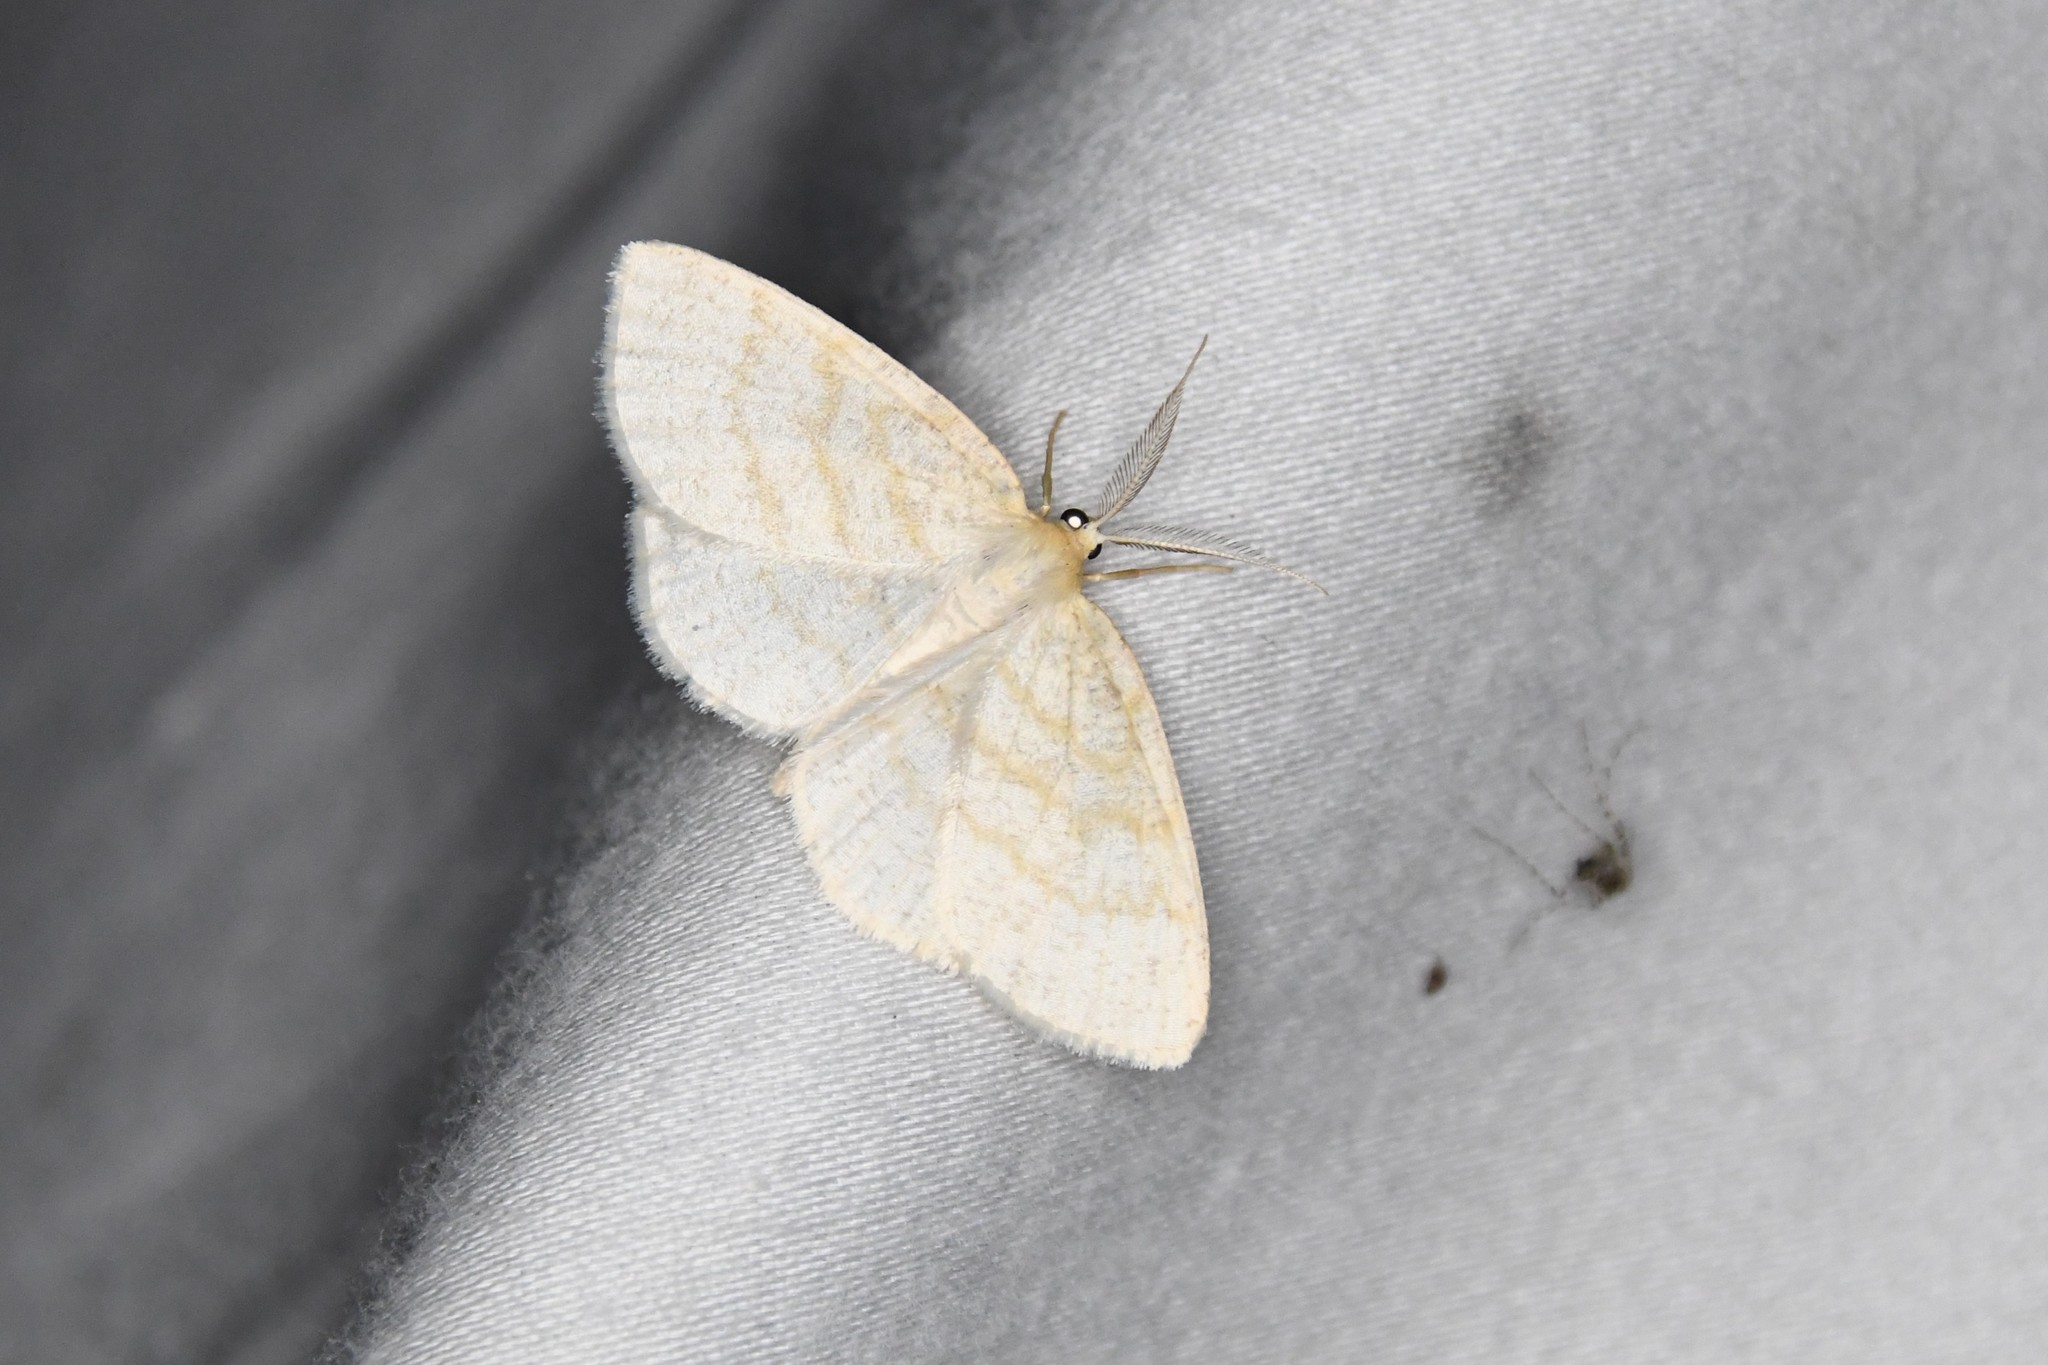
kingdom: Animalia
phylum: Arthropoda
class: Insecta
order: Lepidoptera
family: Geometridae
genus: Cabera
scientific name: Cabera erythemaria
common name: Yellow-dusted cream moth
